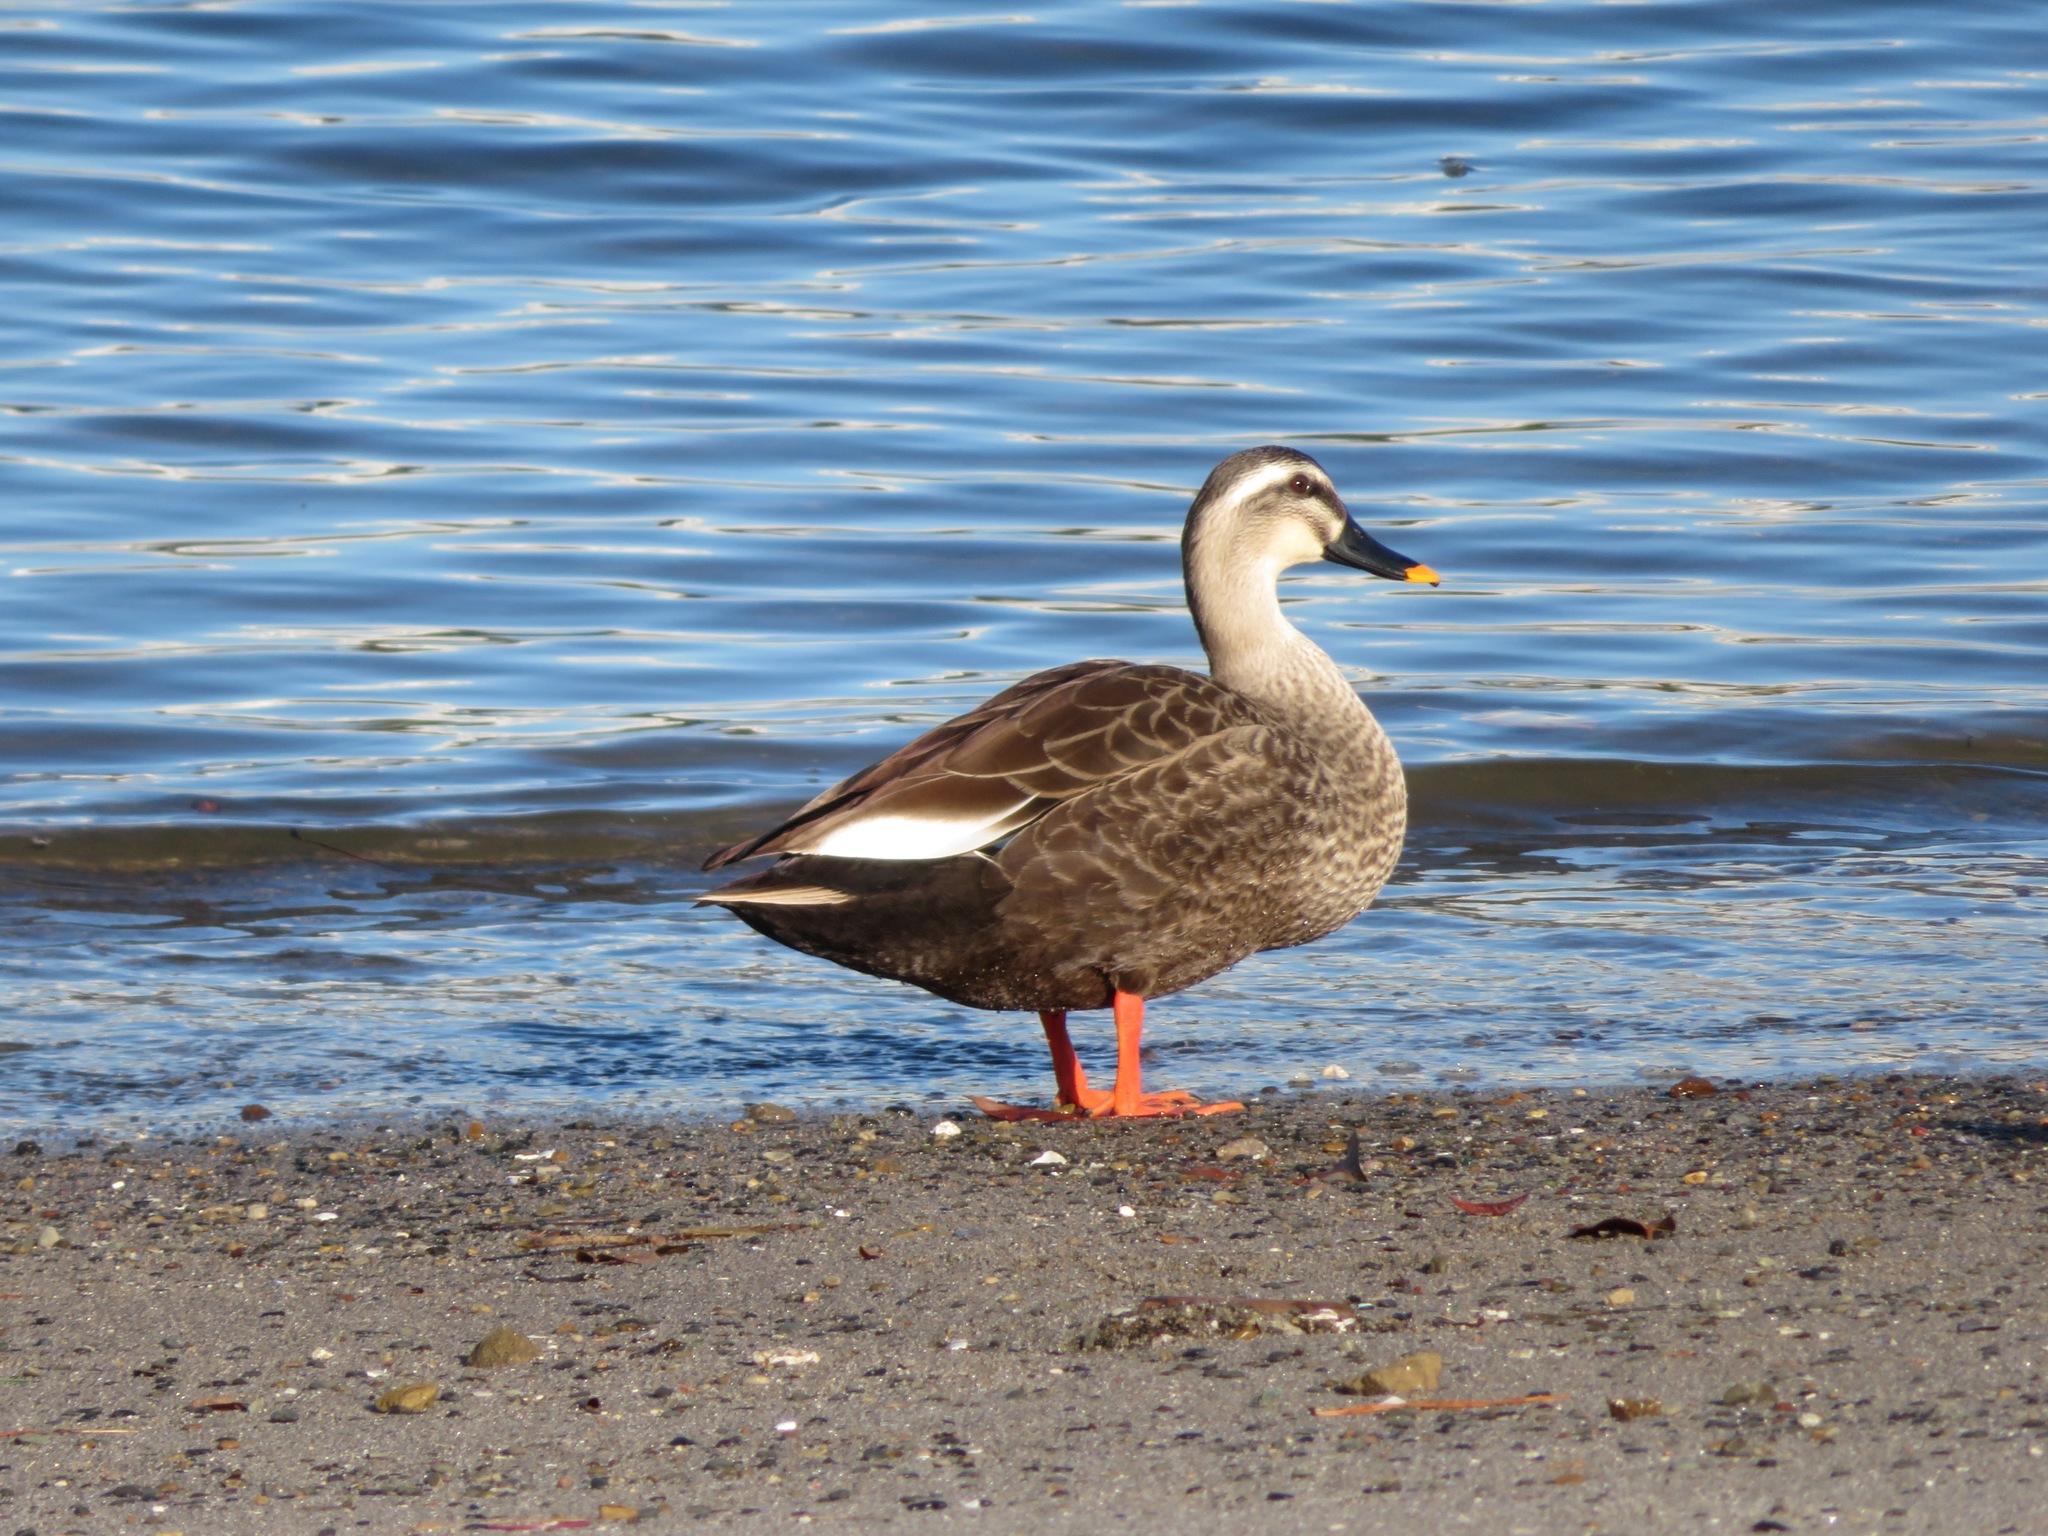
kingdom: Animalia
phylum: Chordata
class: Aves
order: Anseriformes
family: Anatidae
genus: Anas
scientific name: Anas zonorhyncha
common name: Eastern spot-billed duck
